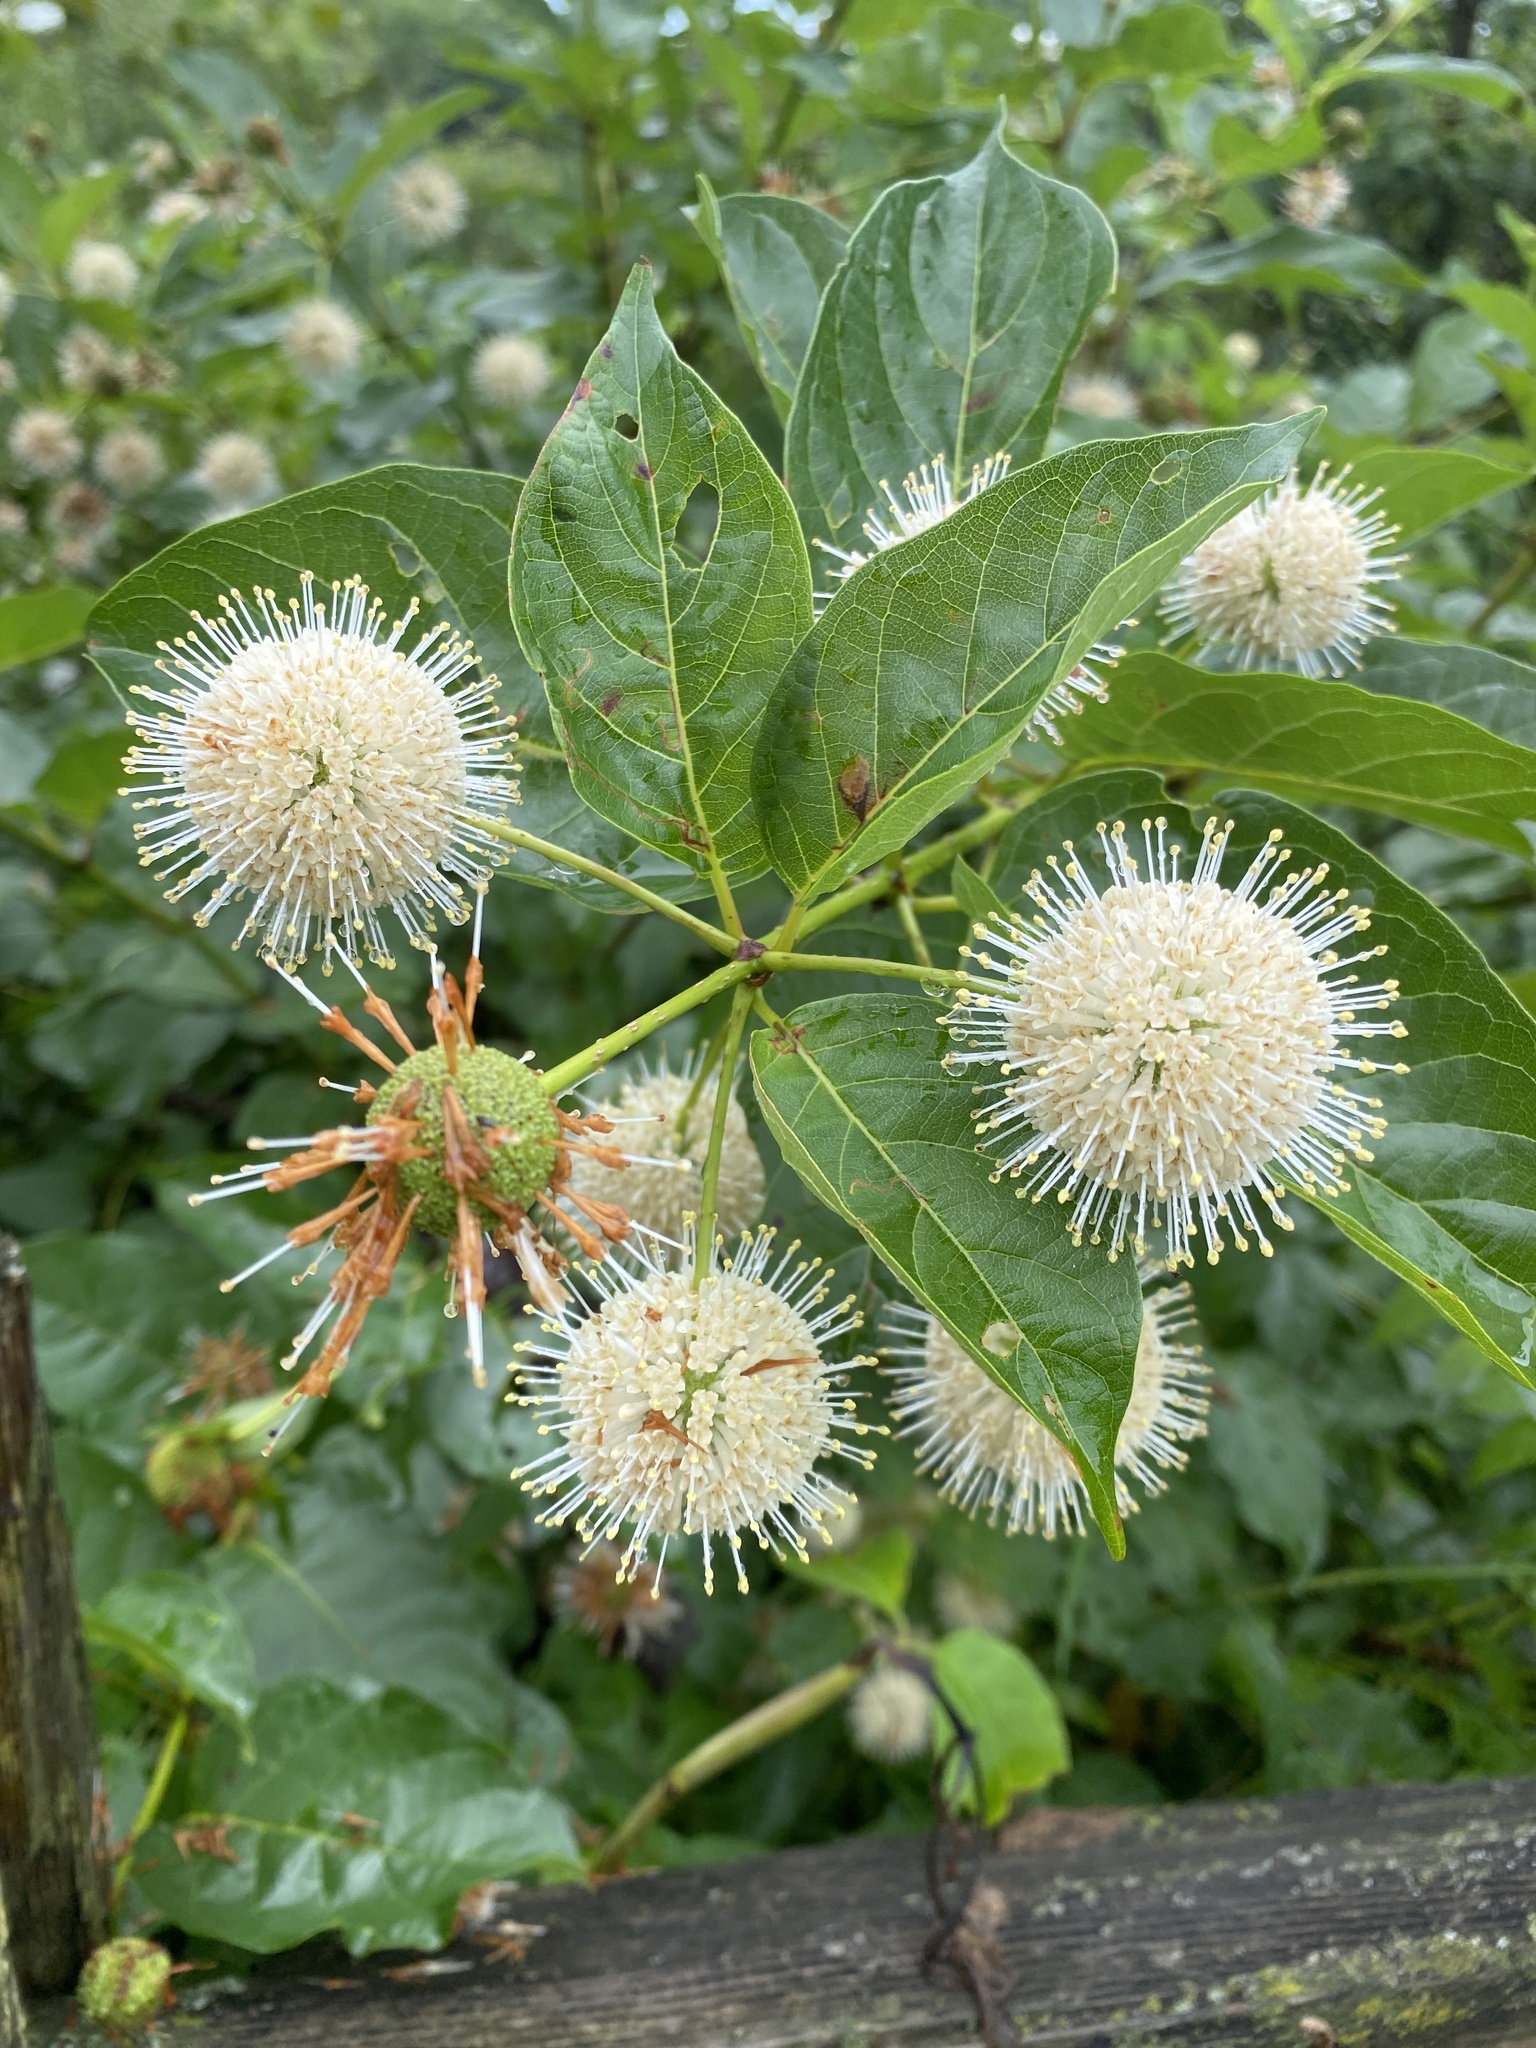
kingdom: Plantae
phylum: Tracheophyta
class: Magnoliopsida
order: Gentianales
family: Rubiaceae
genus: Cephalanthus
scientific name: Cephalanthus occidentalis
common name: Button-willow
